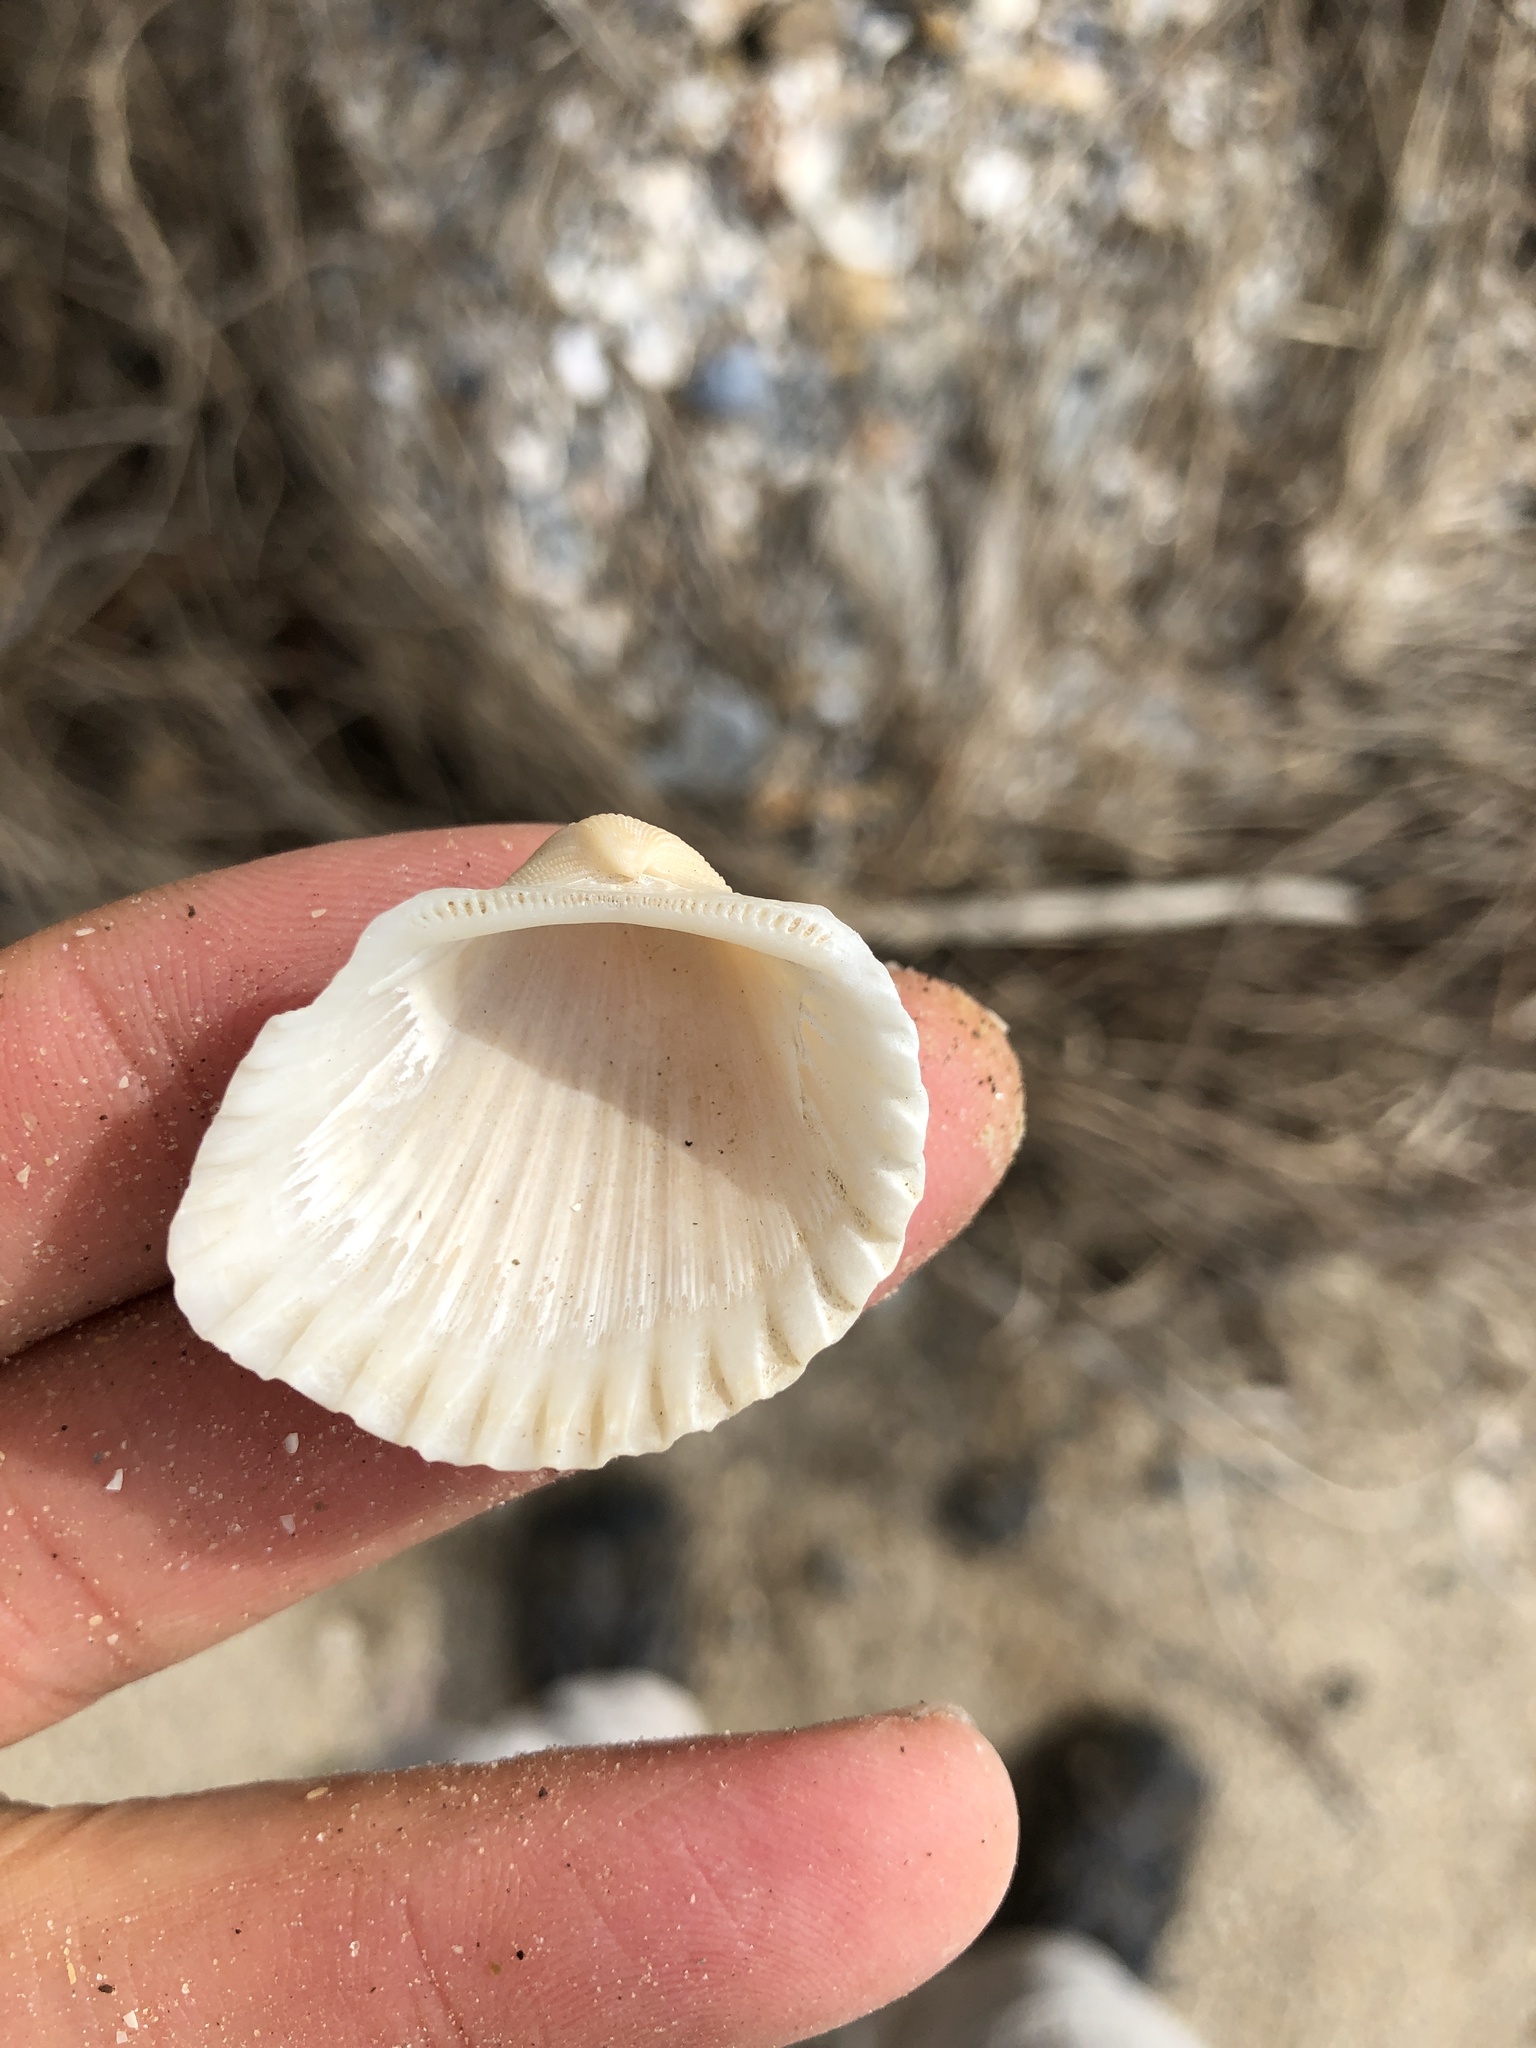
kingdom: Animalia
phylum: Mollusca
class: Bivalvia
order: Arcida
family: Arcidae
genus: Anadara
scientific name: Anadara brasiliana
